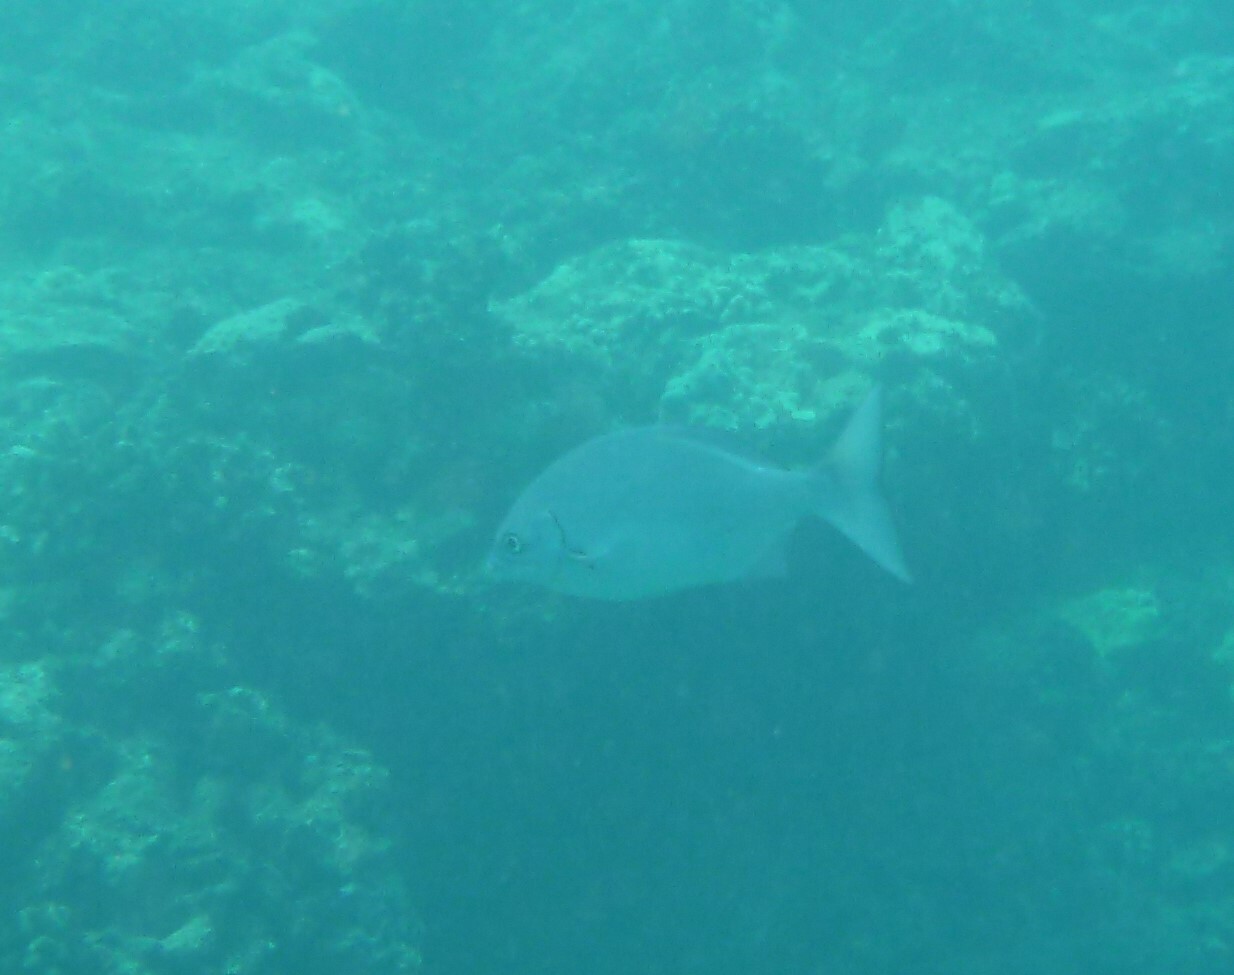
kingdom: Animalia
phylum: Chordata
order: Perciformes
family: Kyphosidae
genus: Kyphosus
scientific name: Kyphosus sectatrix
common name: Bermuda chub
